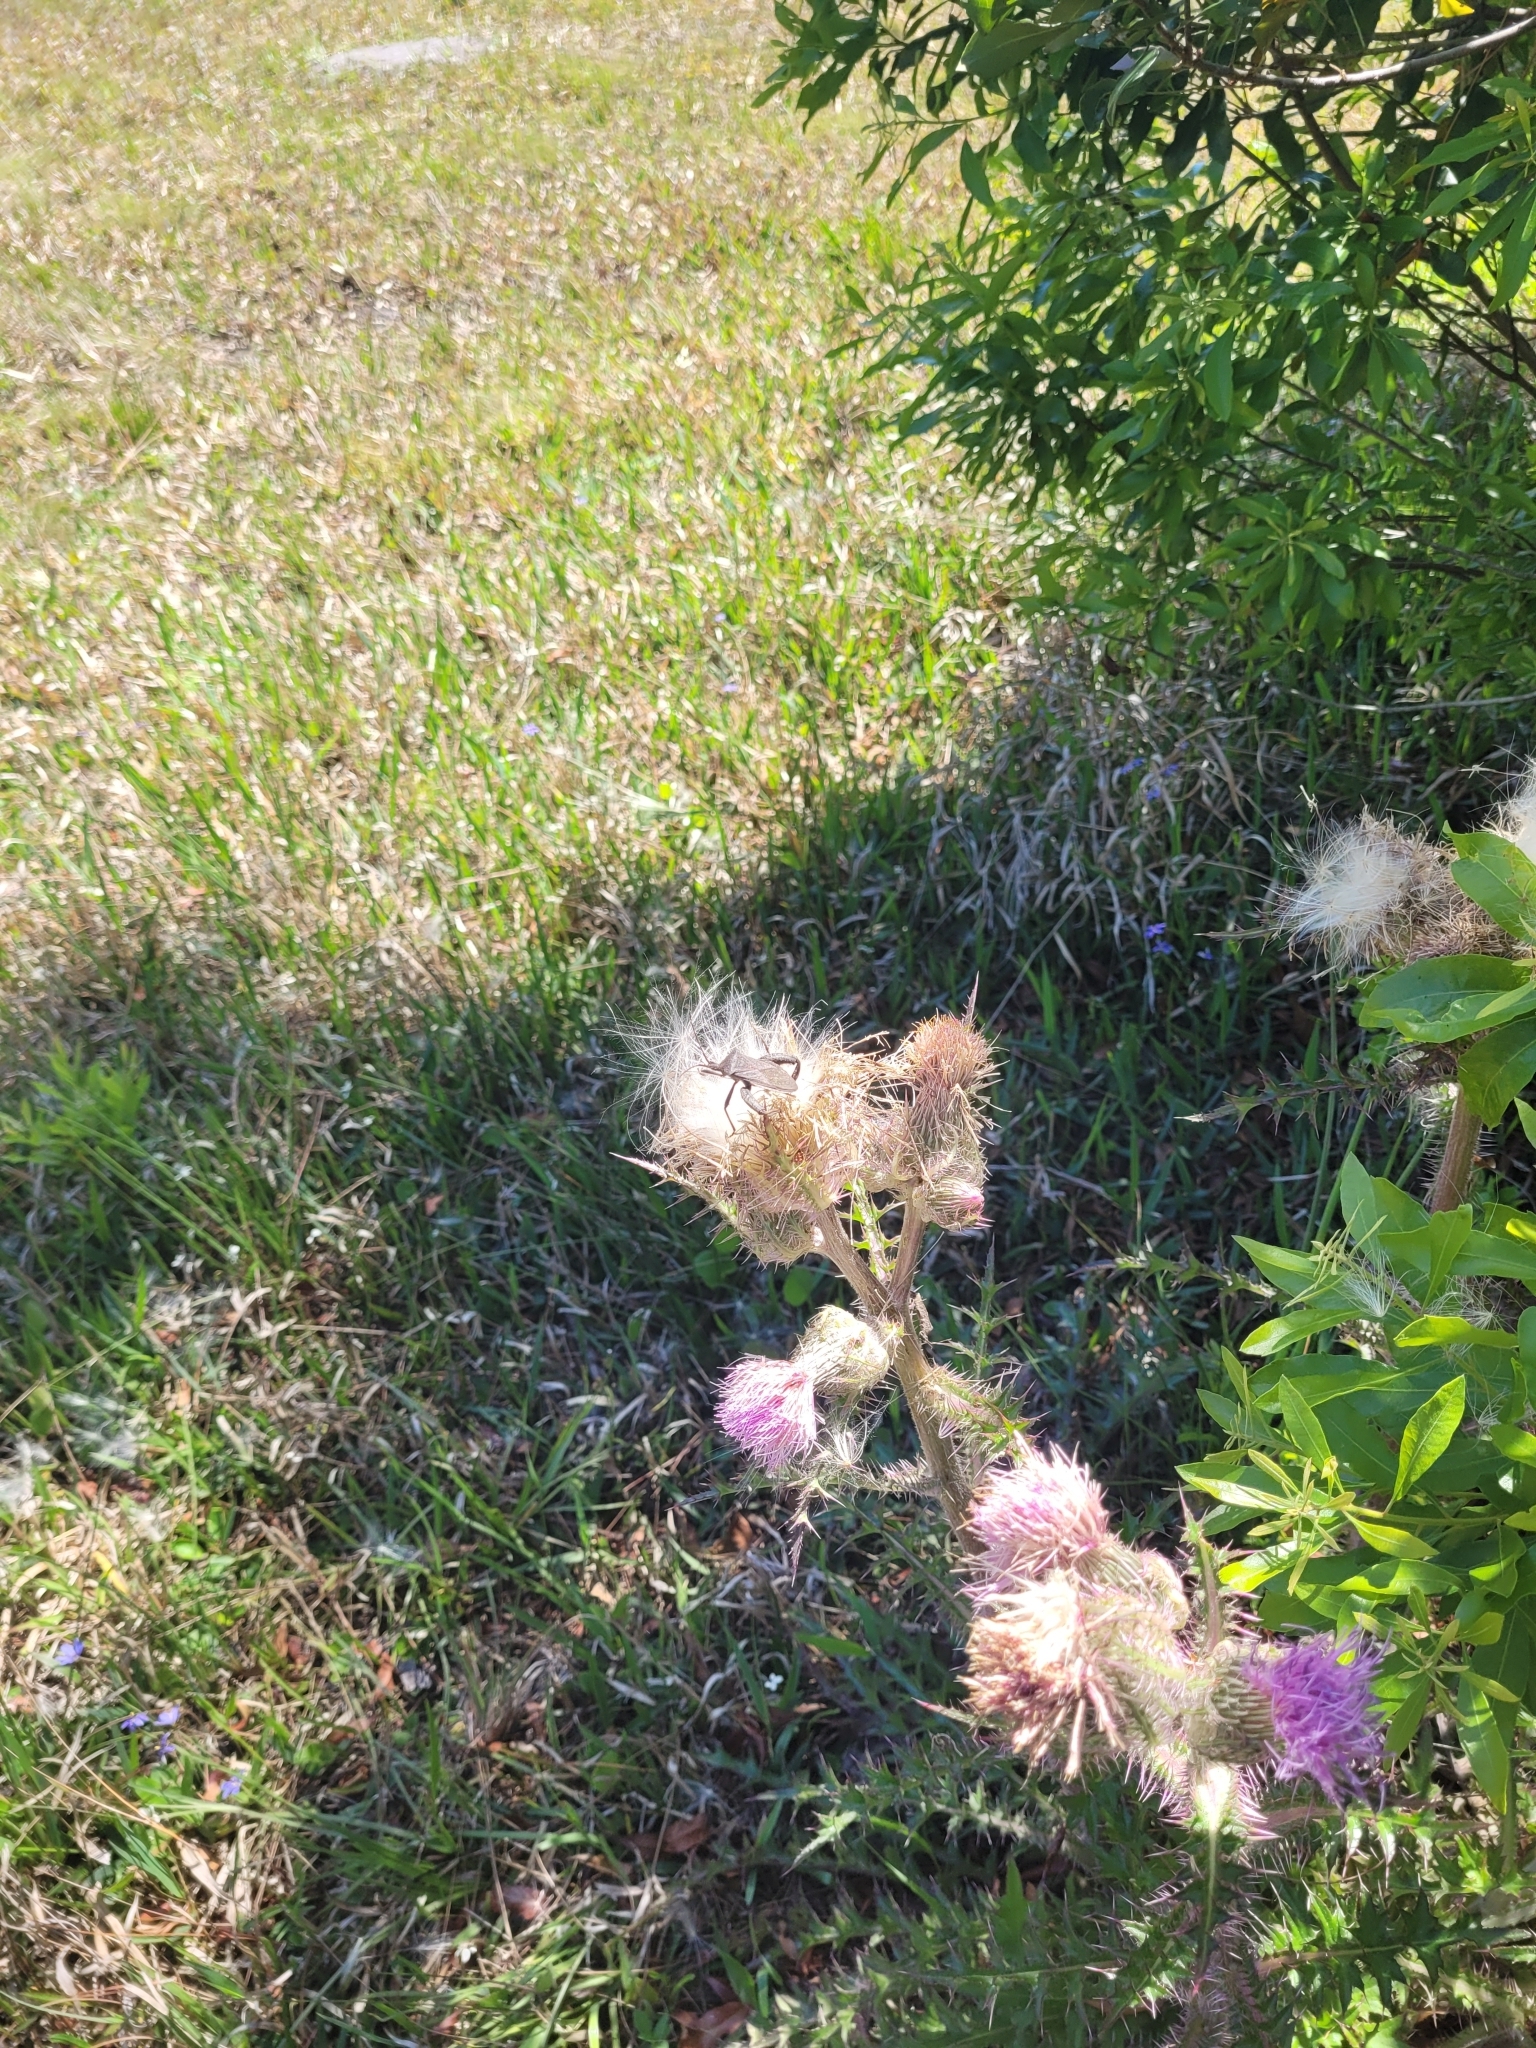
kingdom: Animalia
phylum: Arthropoda
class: Insecta
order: Hemiptera
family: Coreidae
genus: Acanthocephala
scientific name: Acanthocephala femorata
